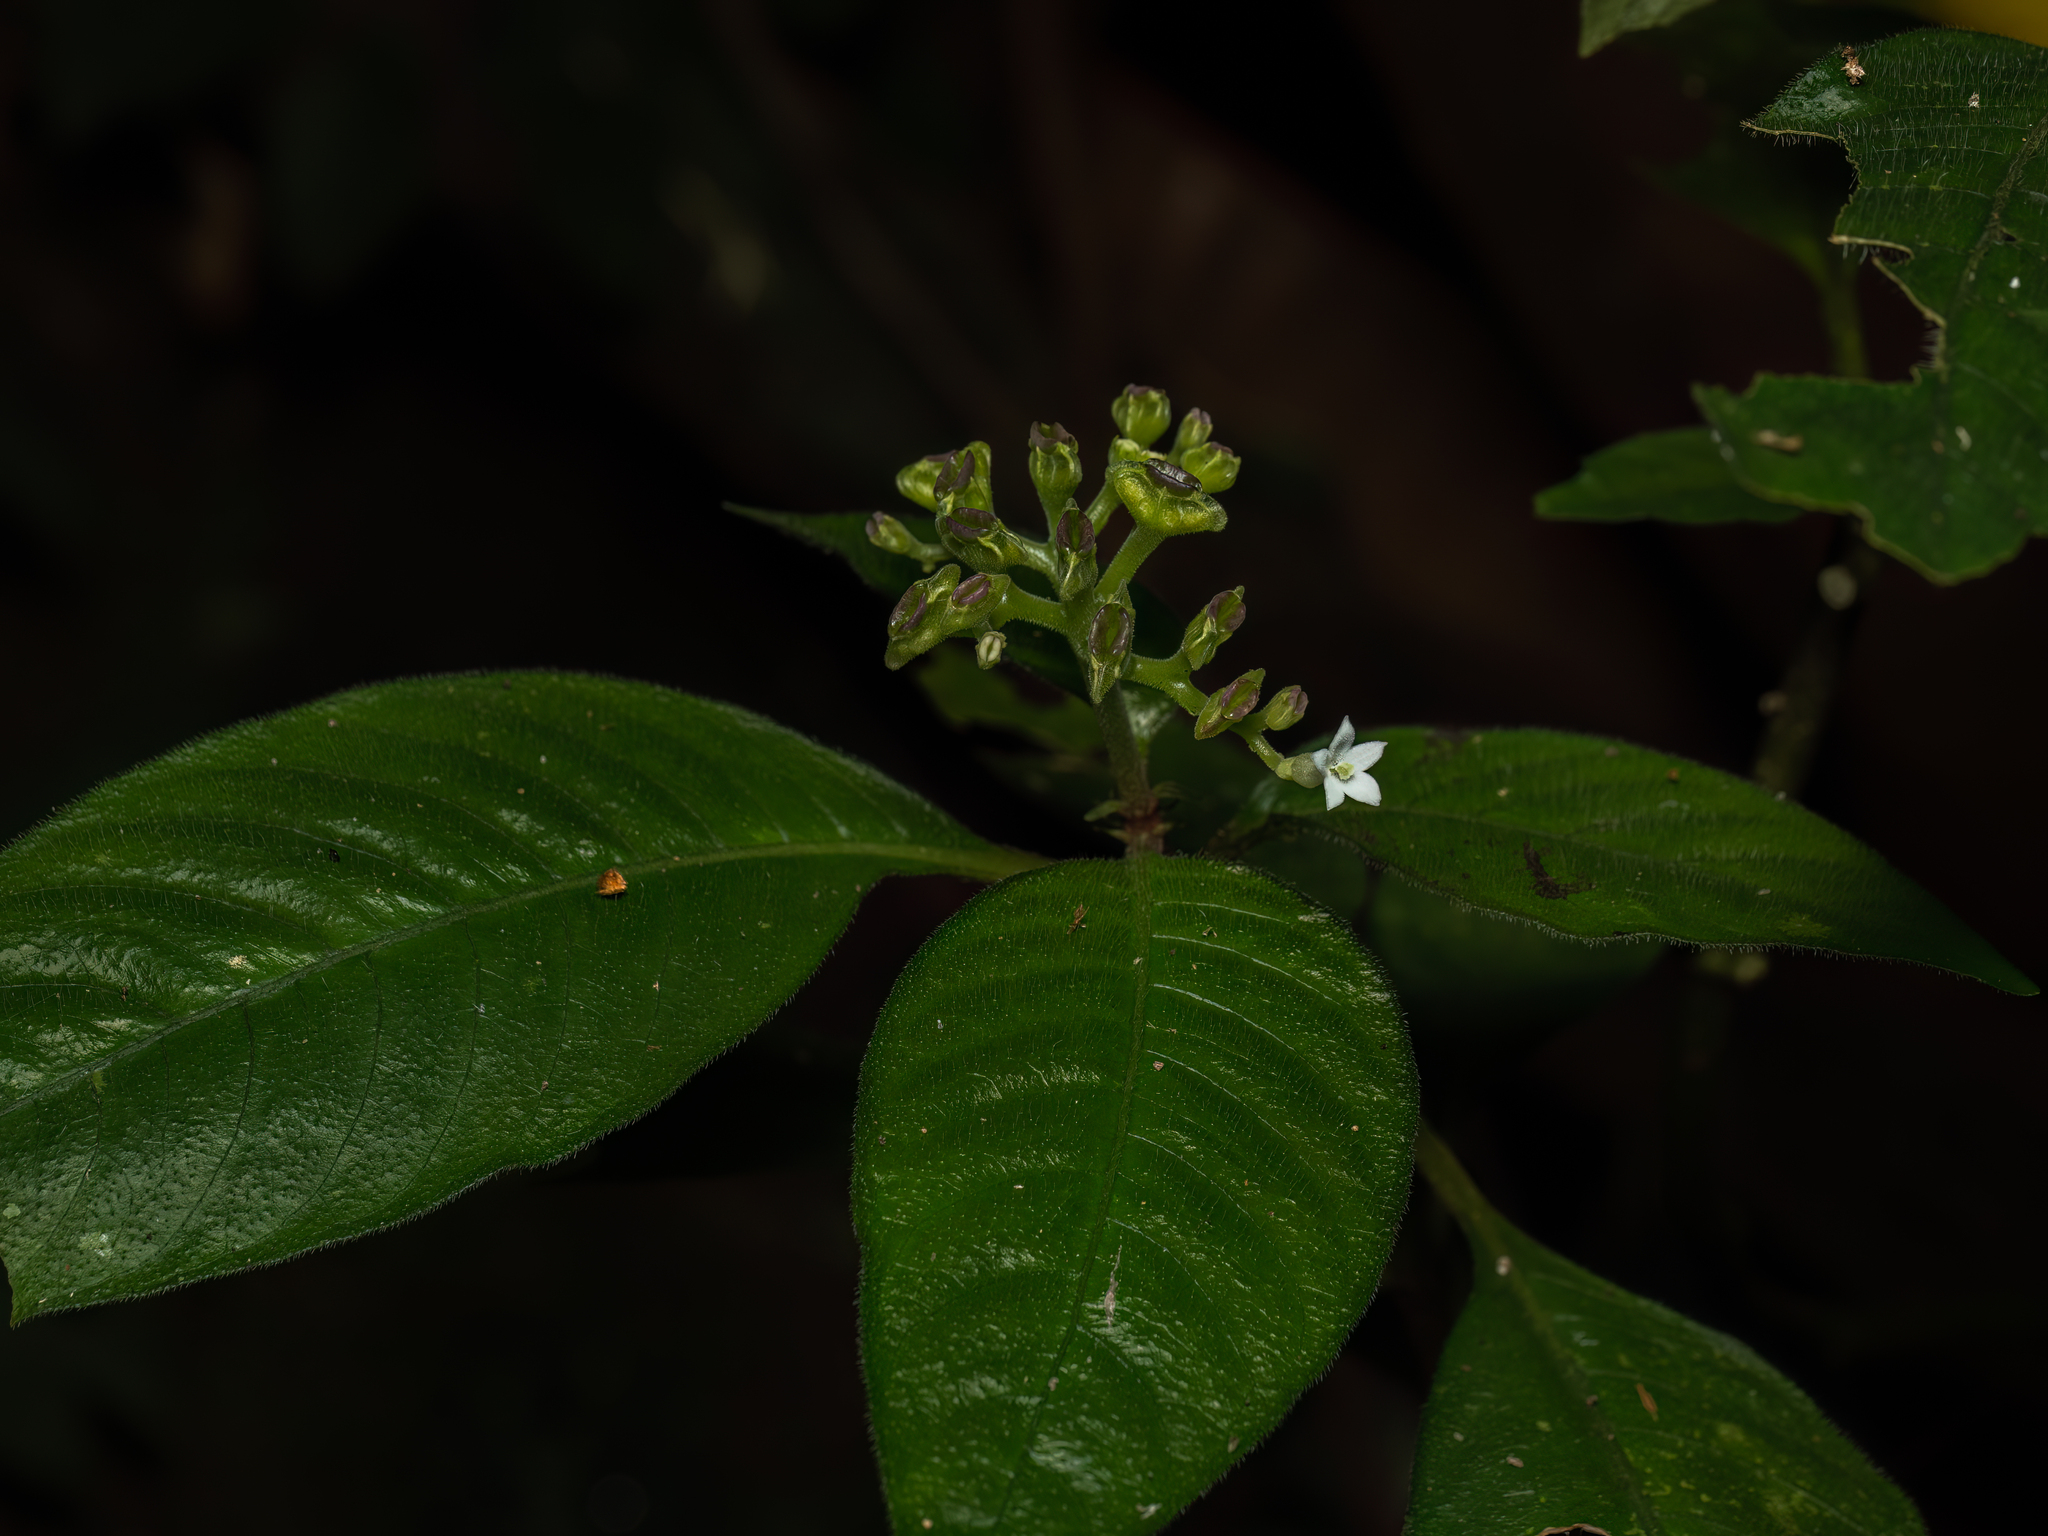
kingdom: Plantae
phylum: Tracheophyta
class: Magnoliopsida
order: Gentianales
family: Rubiaceae
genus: Ophiorrhiza
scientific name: Ophiorrhiza singaporensis
